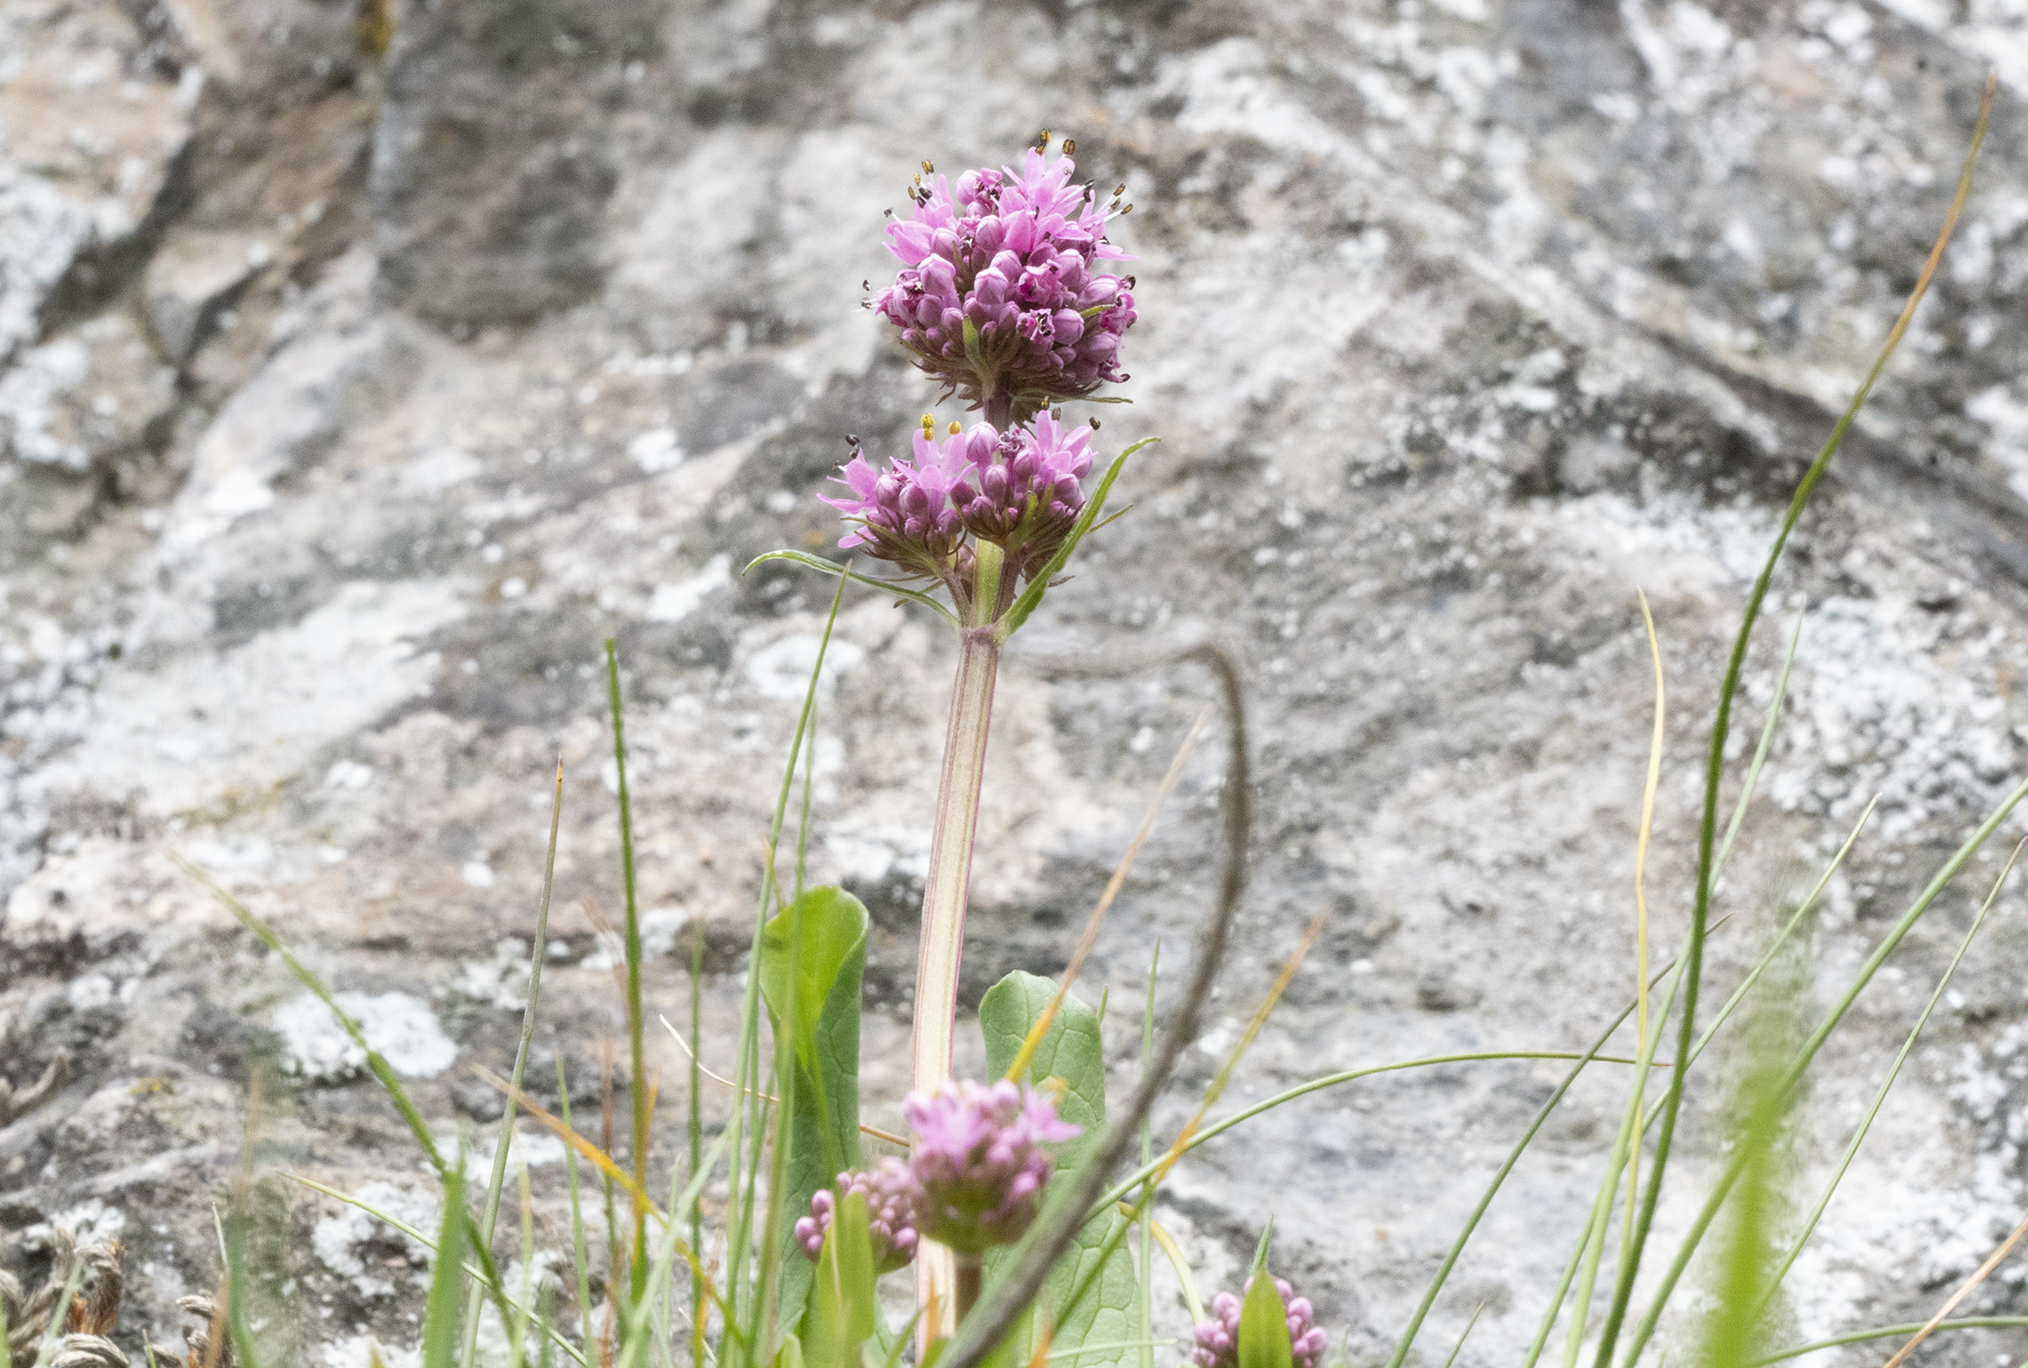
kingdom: Plantae
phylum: Tracheophyta
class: Magnoliopsida
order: Dipsacales
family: Caprifoliaceae
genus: Plectritis
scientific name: Plectritis congesta
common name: Pink plectritis
